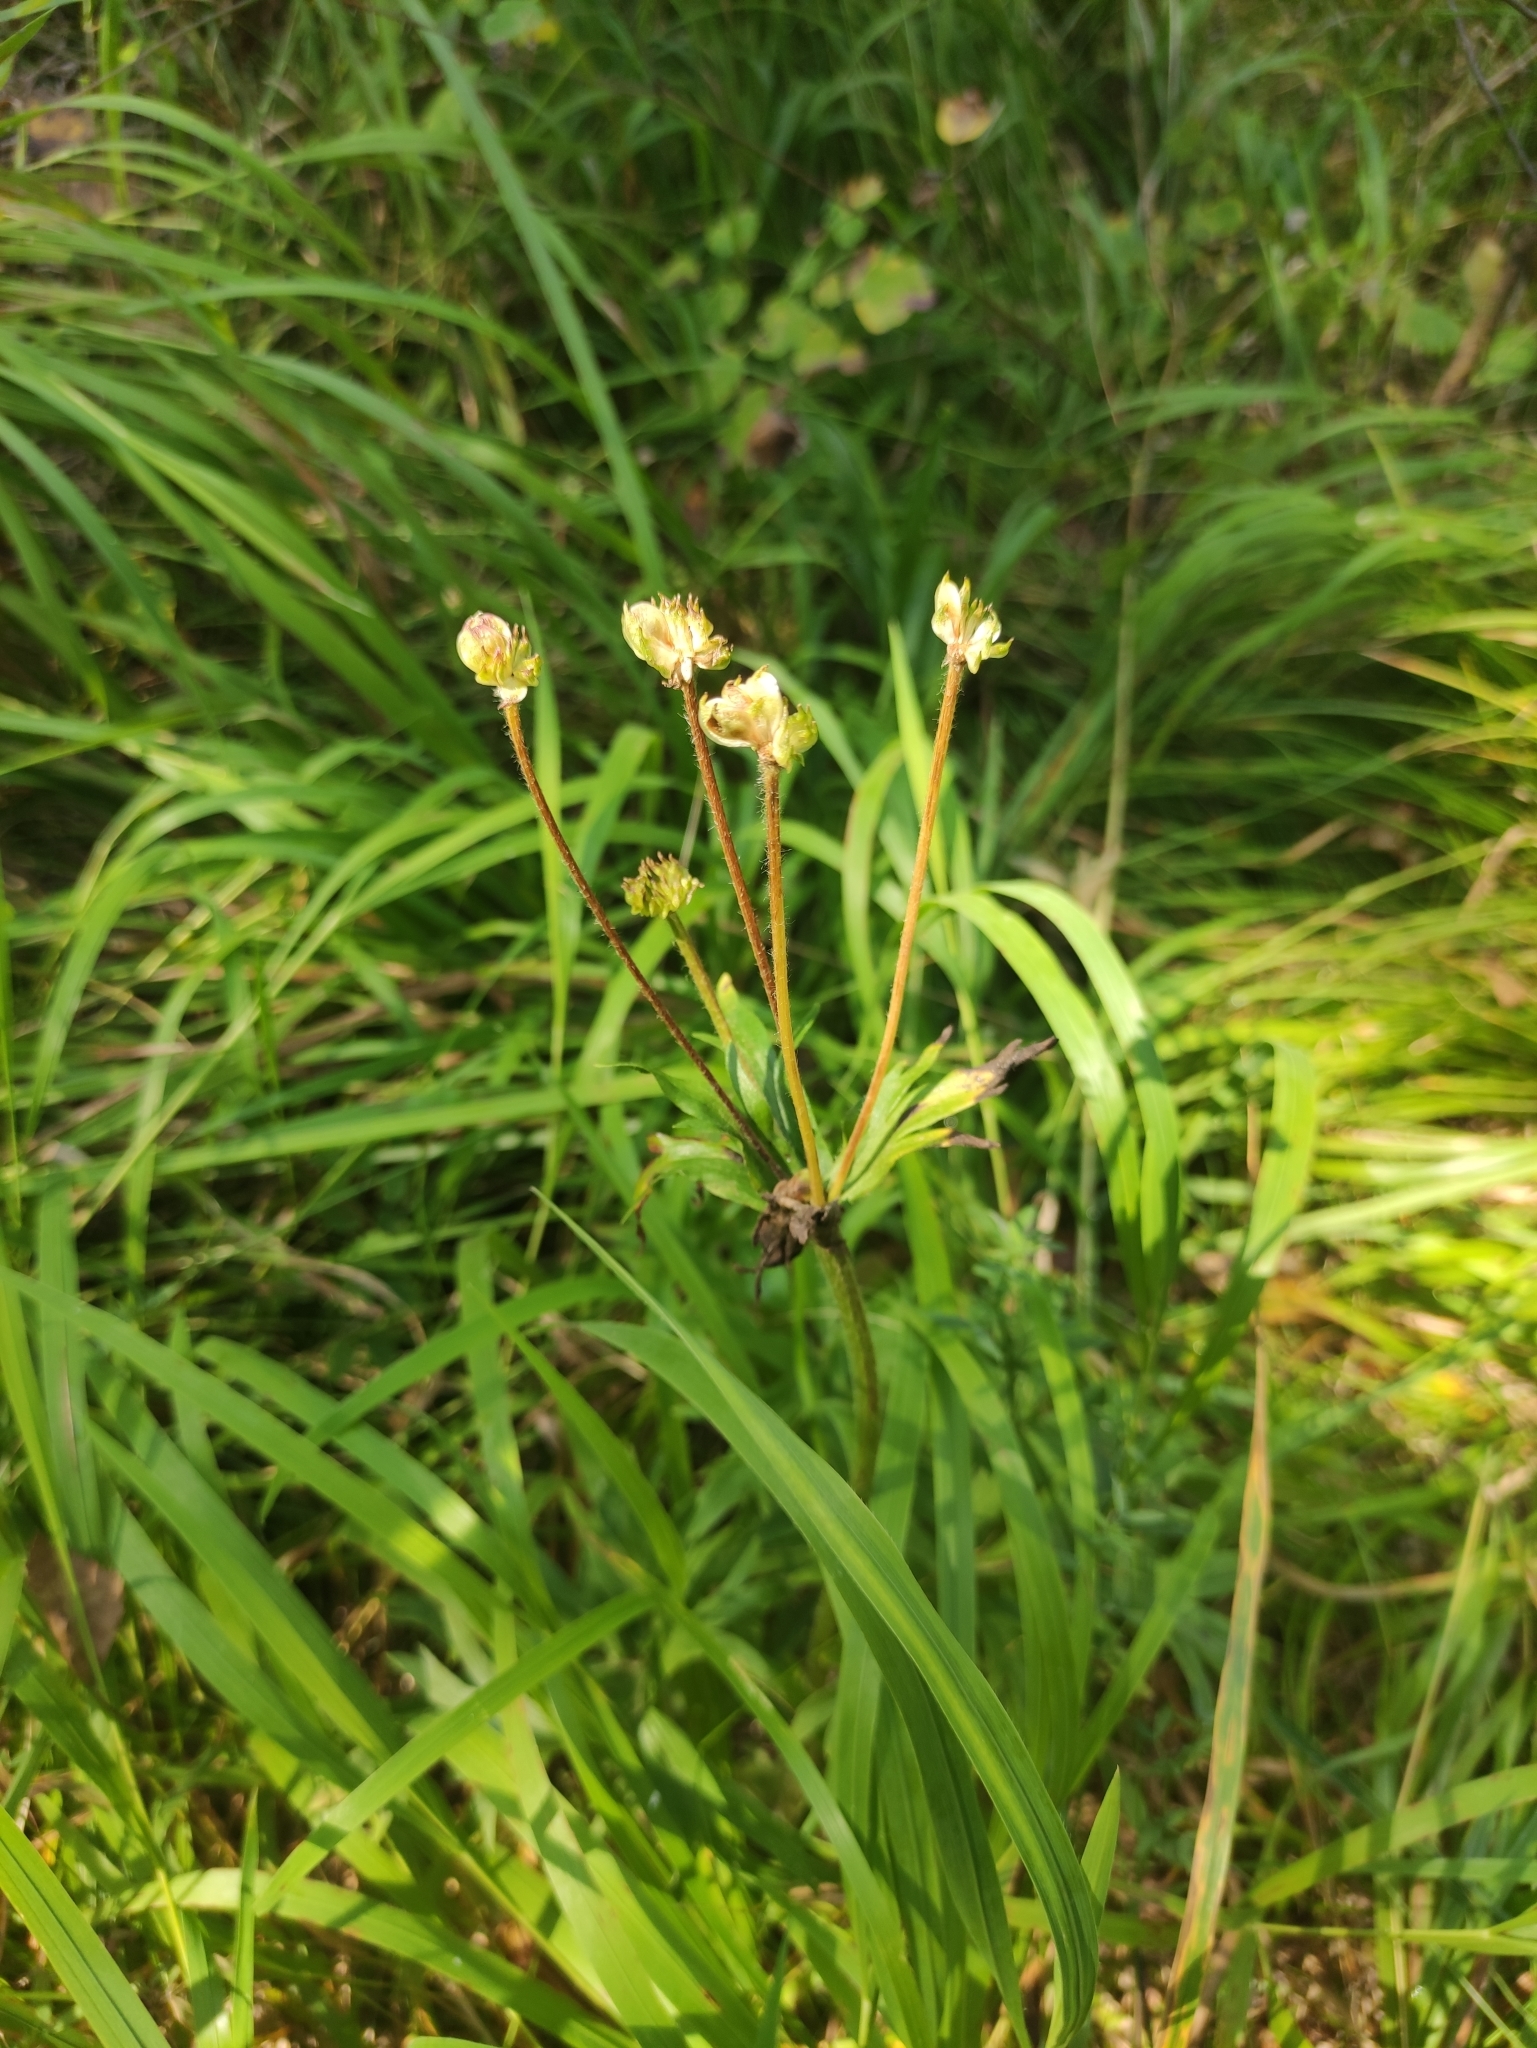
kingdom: Plantae
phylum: Tracheophyta
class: Magnoliopsida
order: Ranunculales
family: Ranunculaceae
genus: Anemonastrum
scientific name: Anemonastrum narcissiflorum
